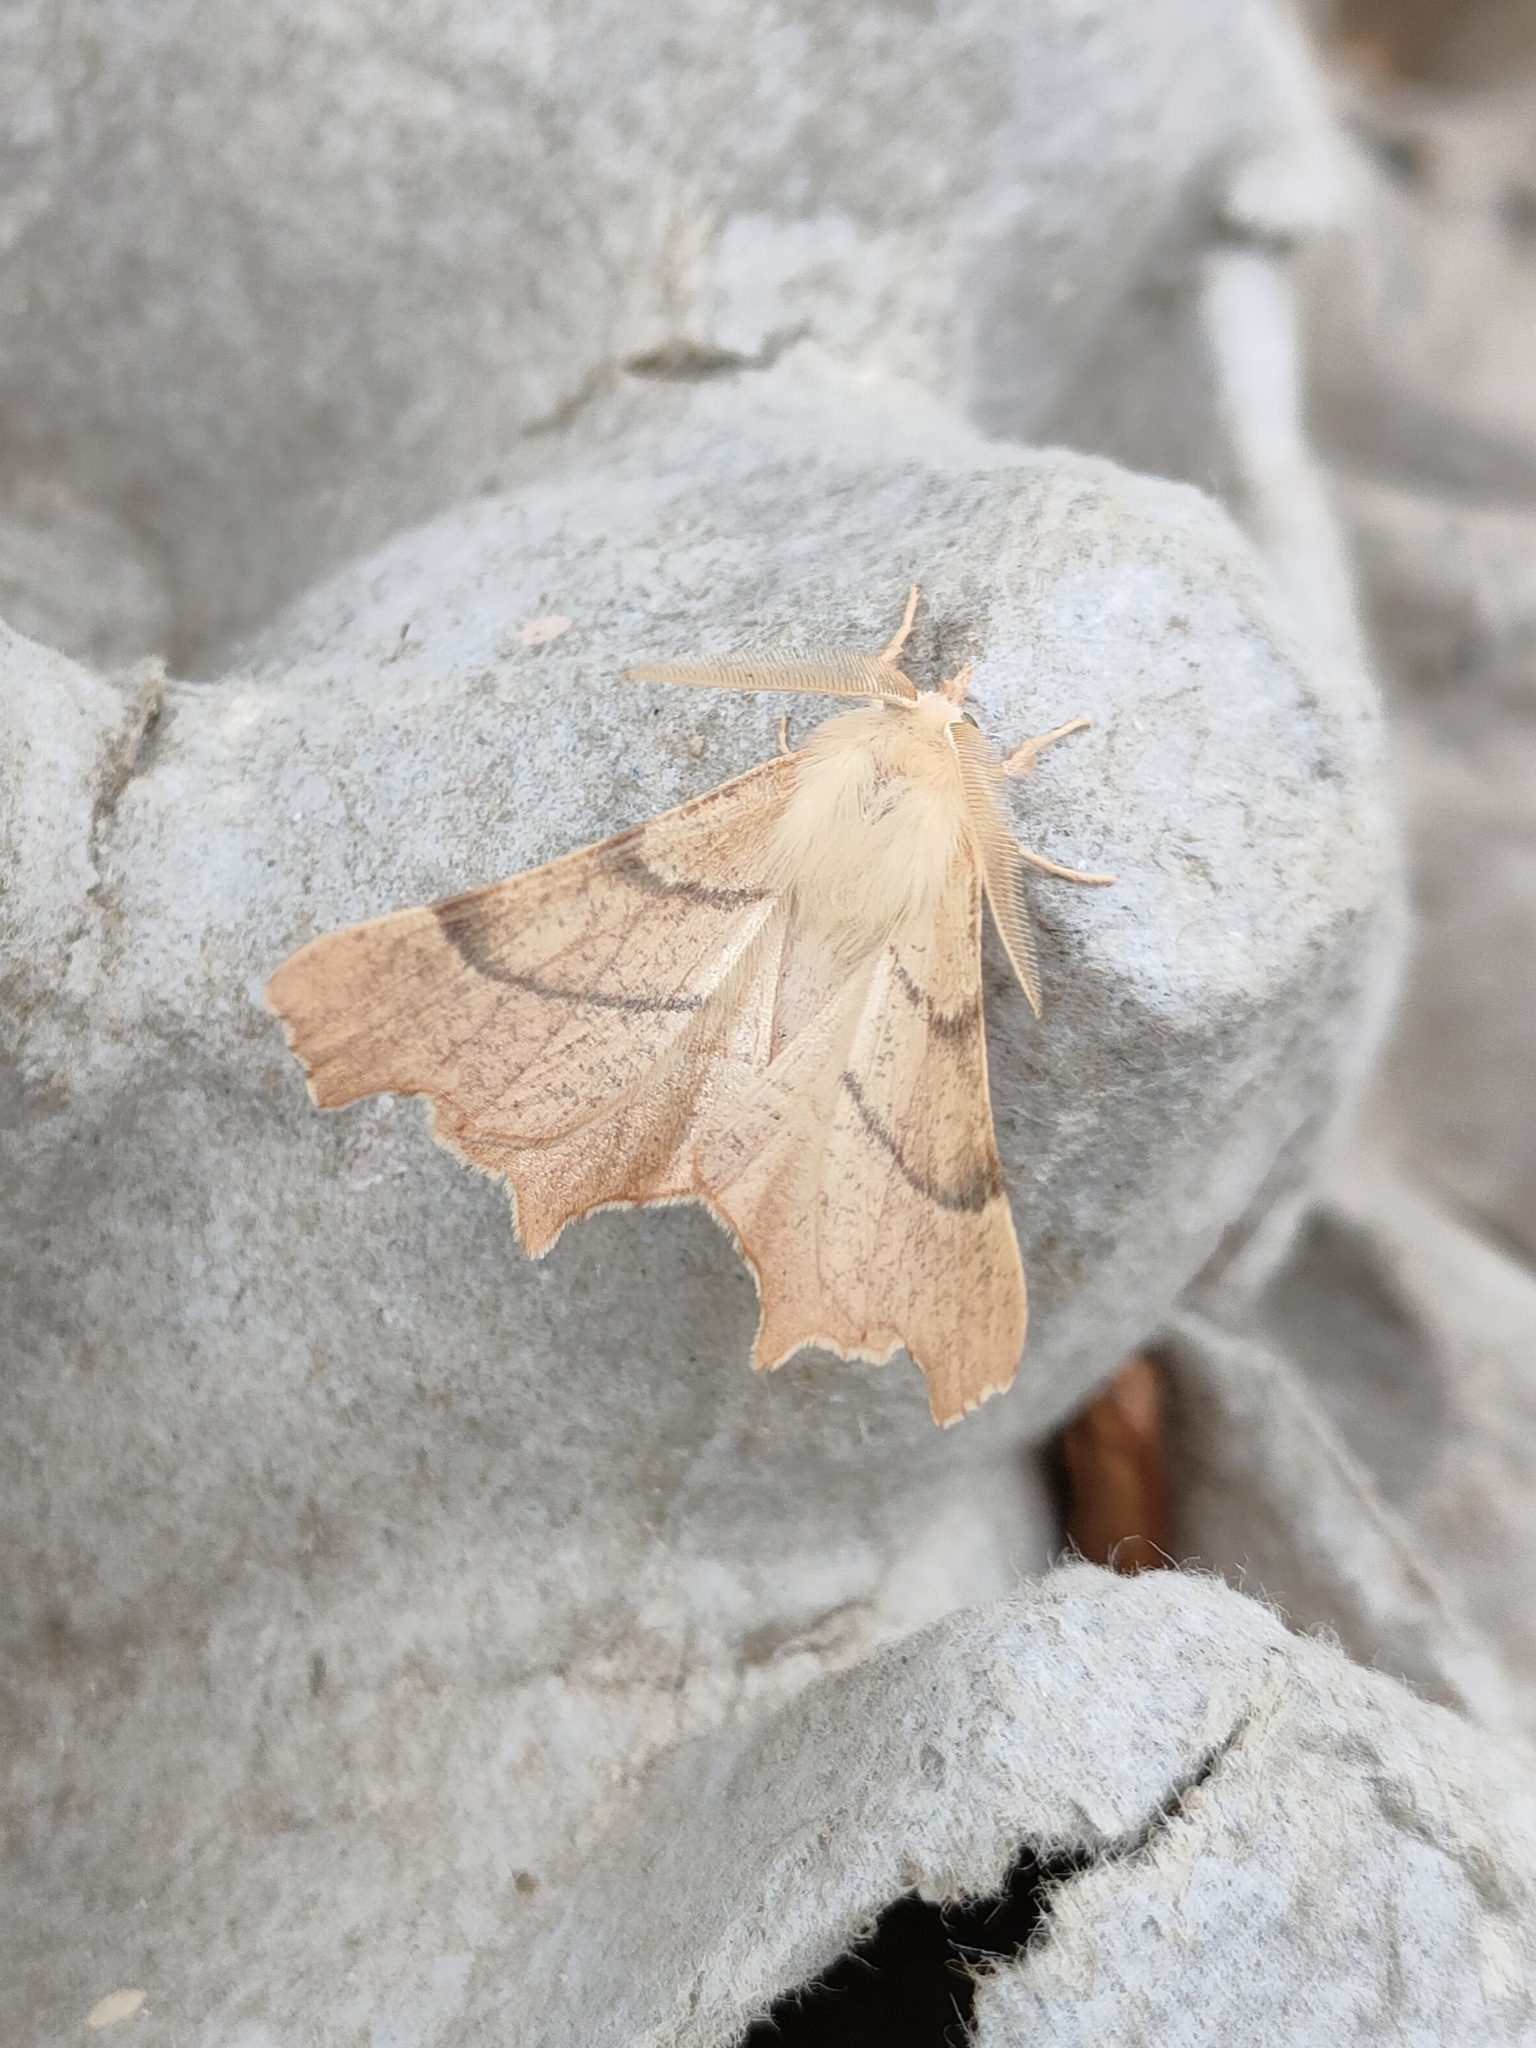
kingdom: Animalia
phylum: Arthropoda
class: Insecta
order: Lepidoptera
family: Geometridae
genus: Ennomos
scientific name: Ennomos erosaria
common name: September thorn
